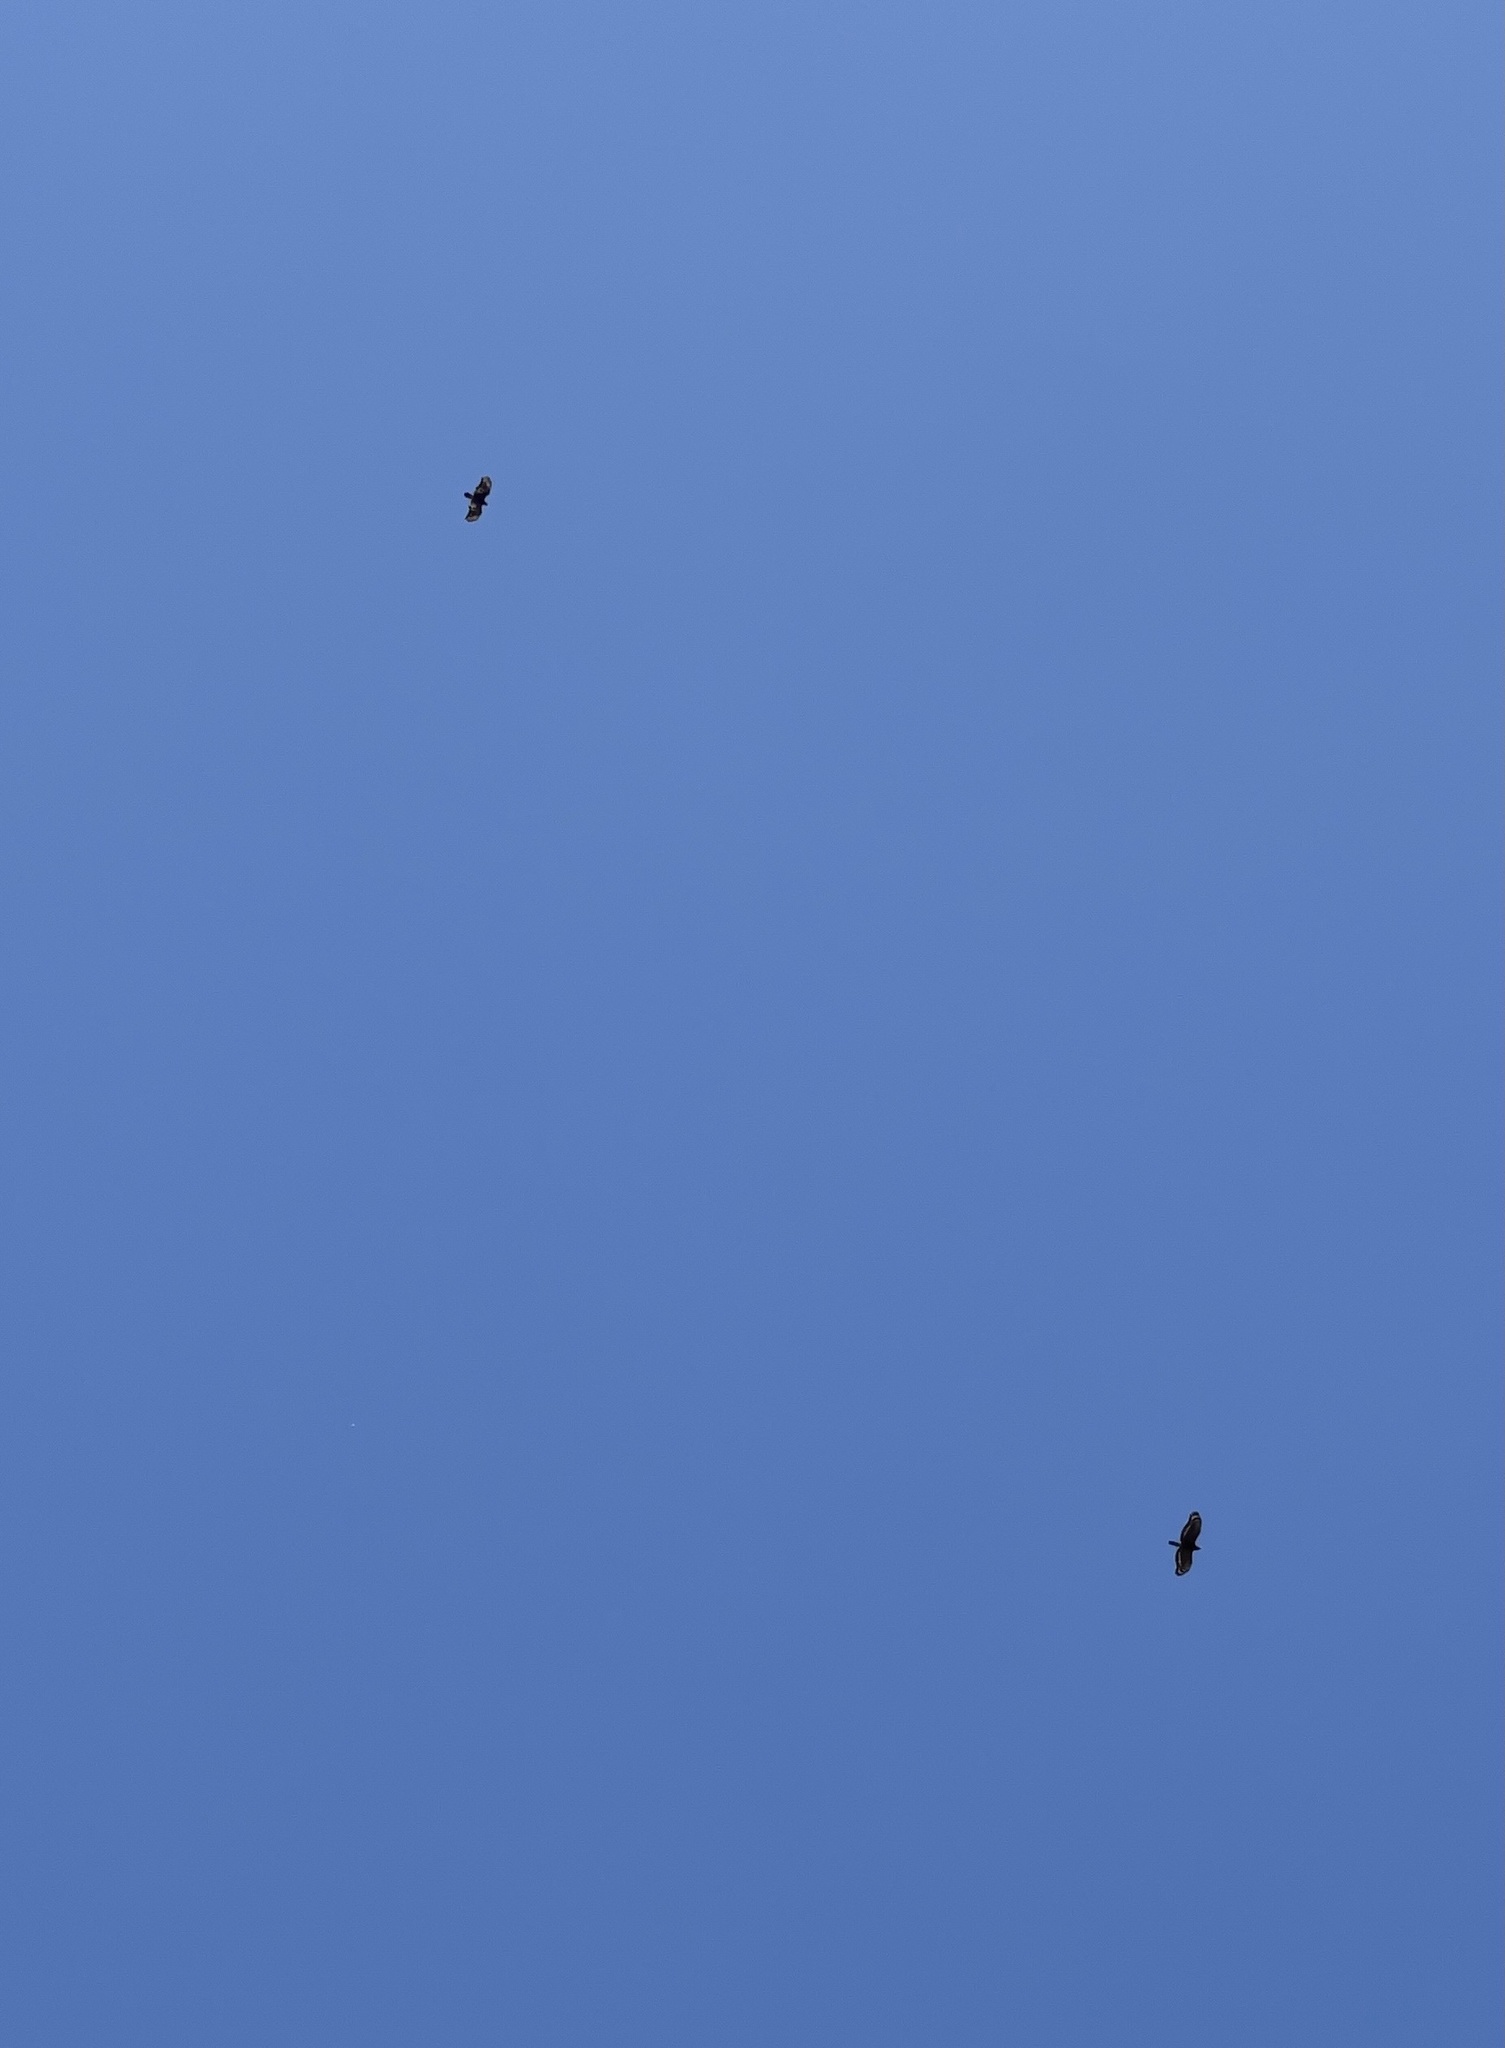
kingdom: Animalia
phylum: Chordata
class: Aves
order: Accipitriformes
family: Accipitridae
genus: Spilornis
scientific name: Spilornis cheela
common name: Crested serpent eagle
